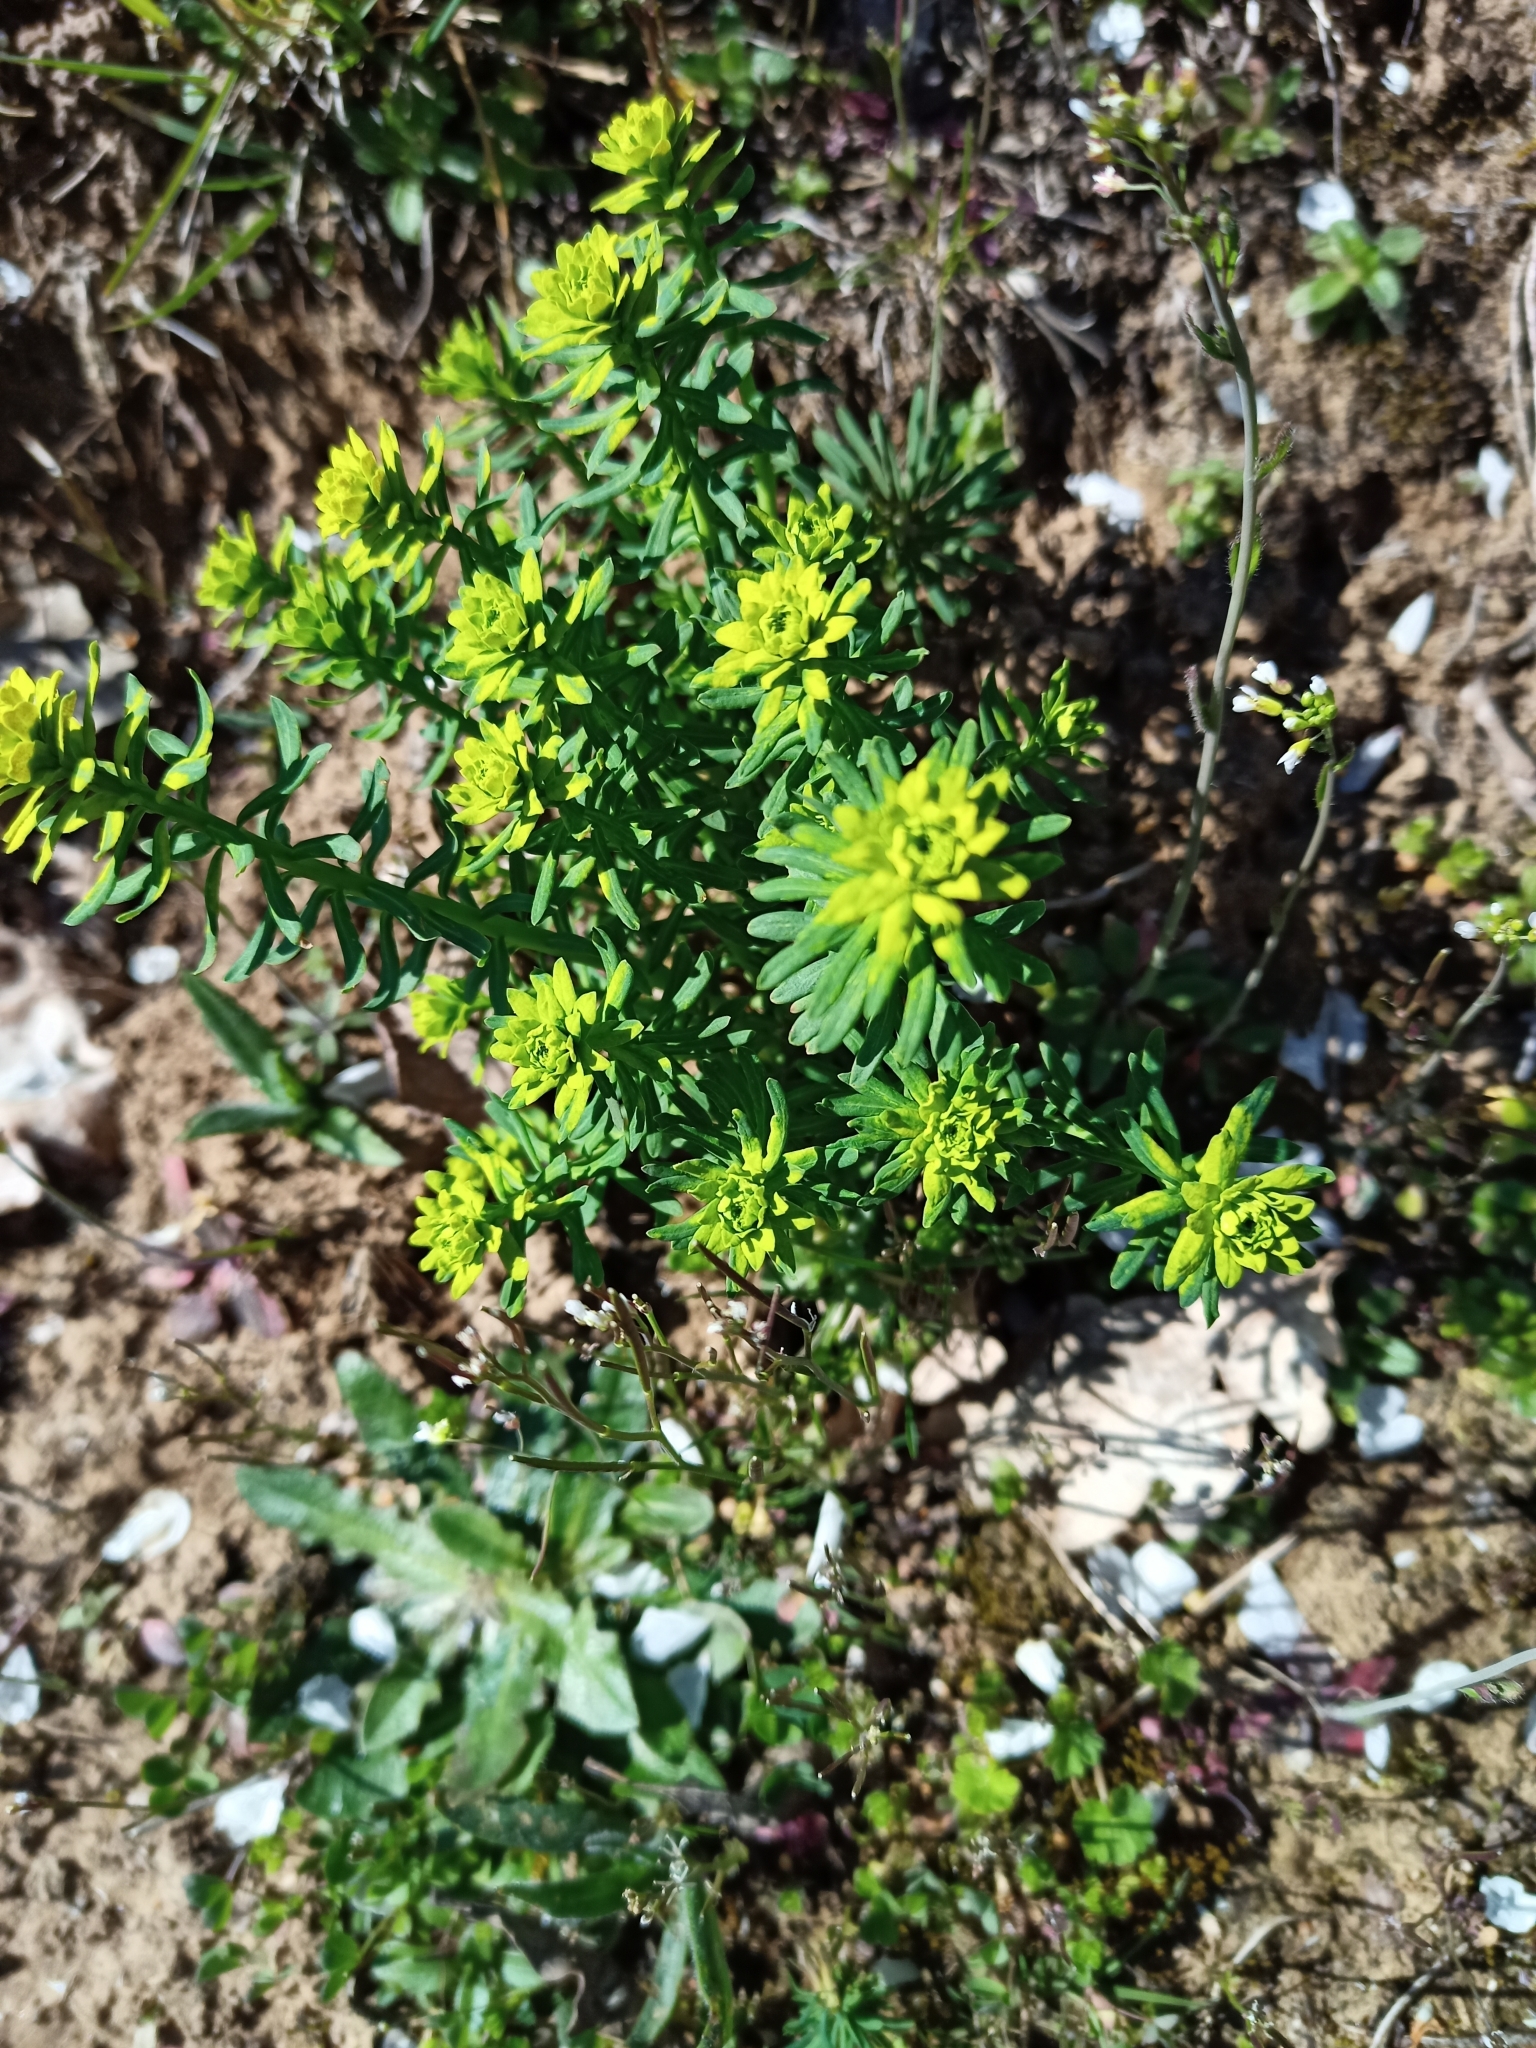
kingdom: Plantae
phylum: Tracheophyta
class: Magnoliopsida
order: Malpighiales
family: Euphorbiaceae
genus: Euphorbia
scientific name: Euphorbia cyparissias
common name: Cypress spurge
